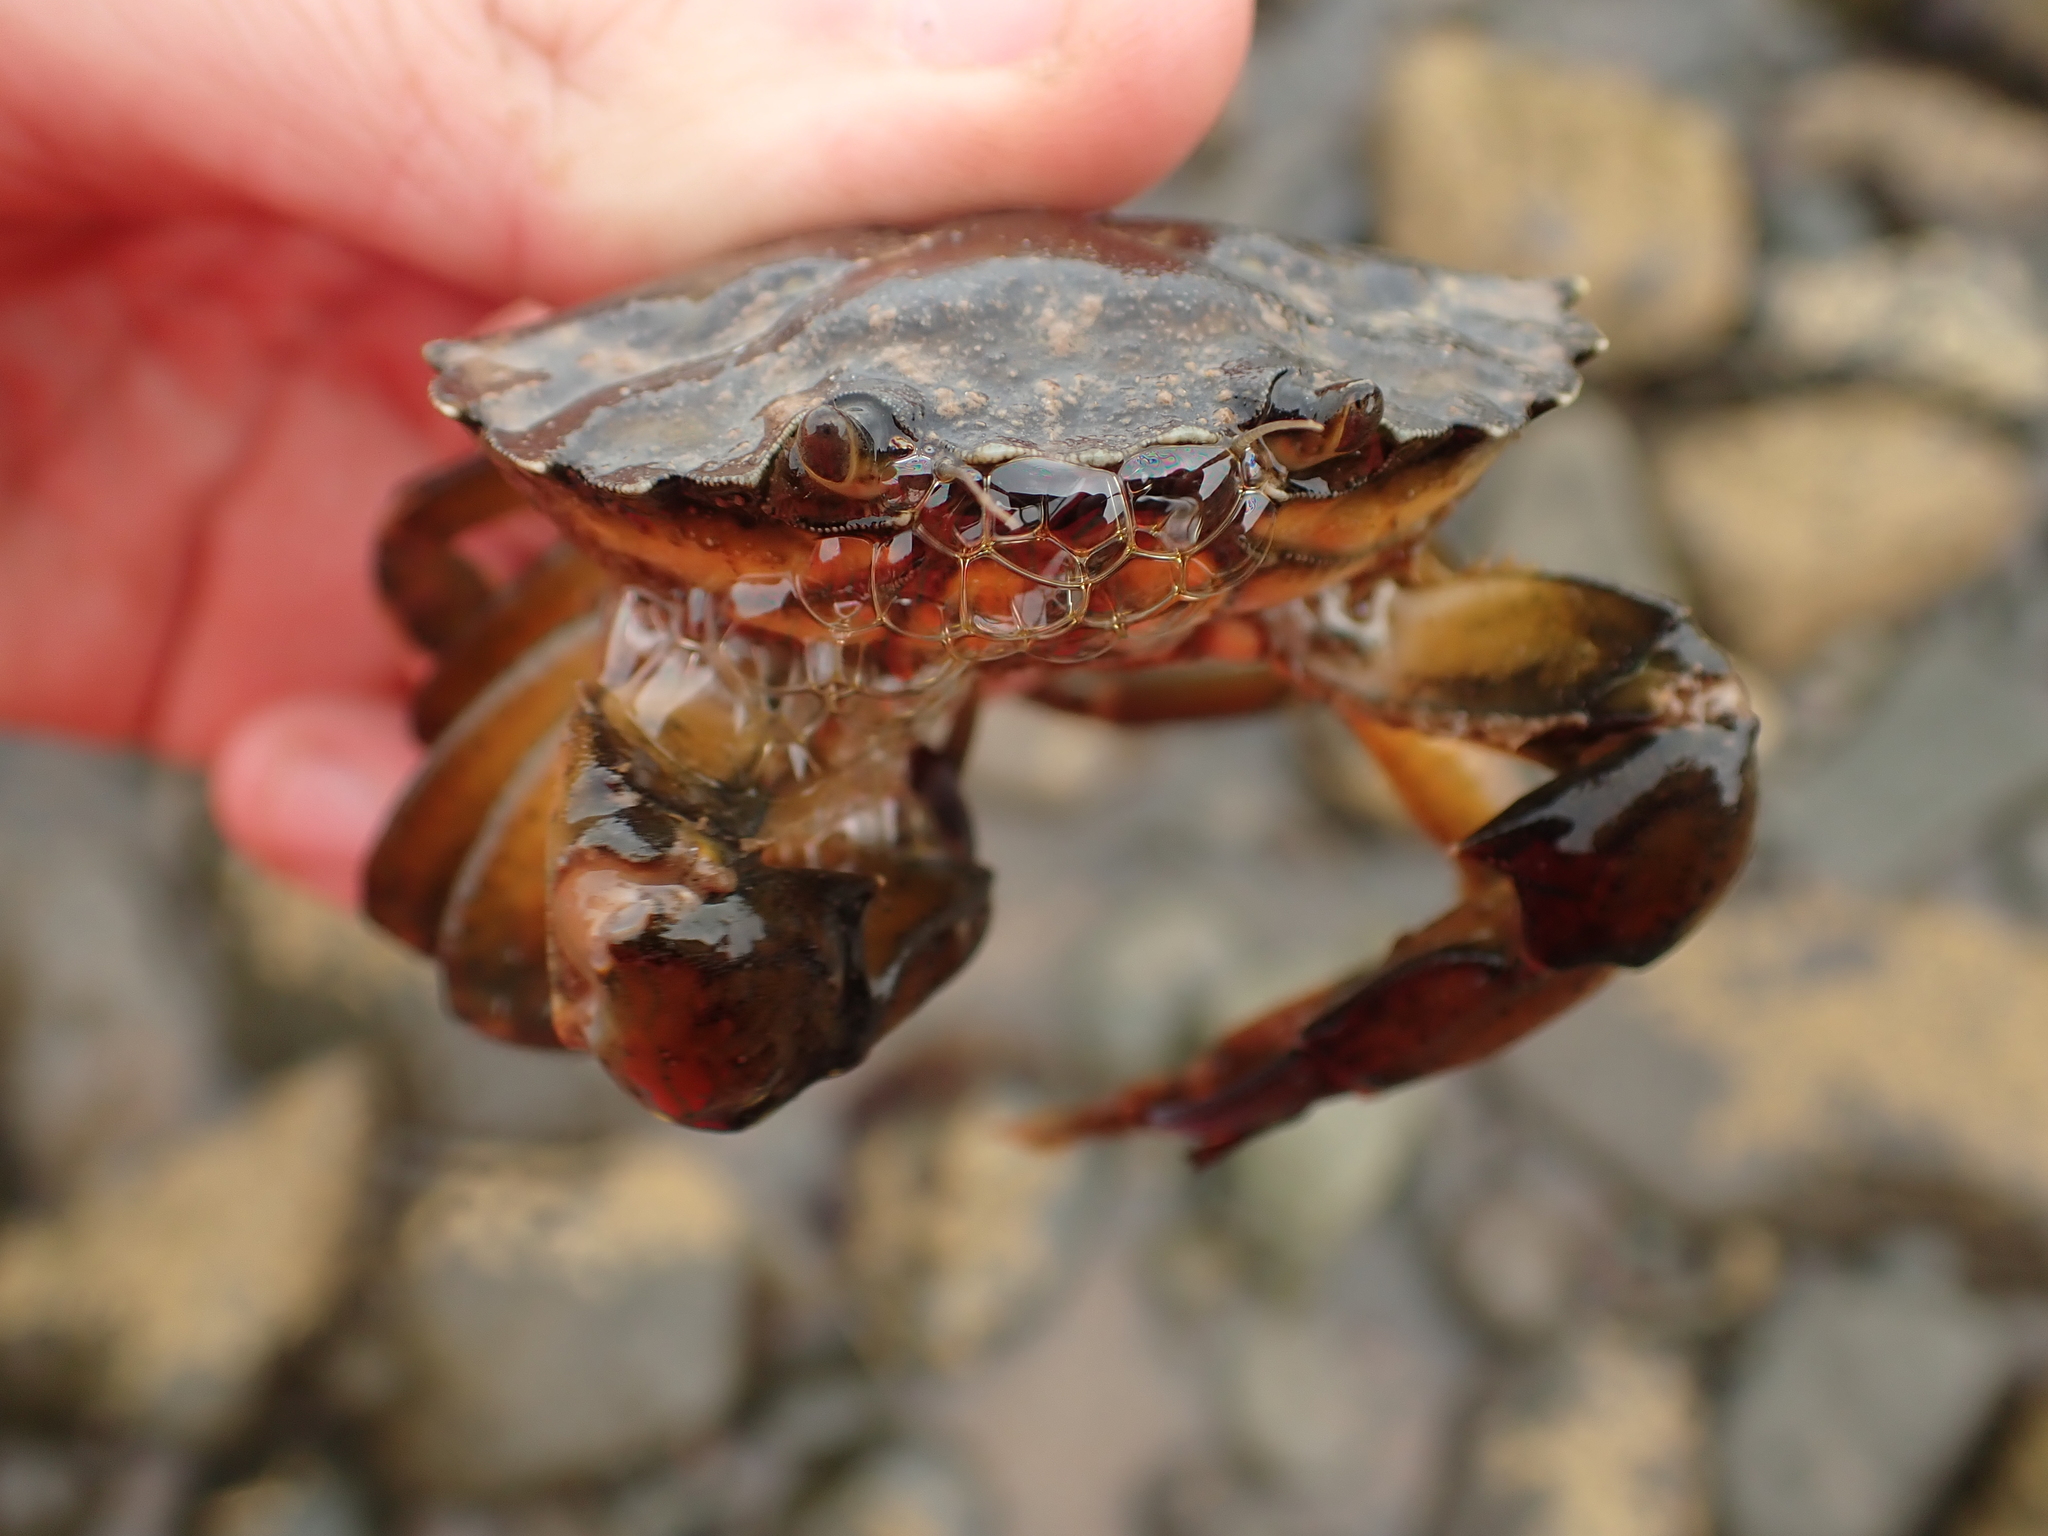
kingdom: Animalia
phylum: Arthropoda
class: Malacostraca
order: Decapoda
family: Carcinidae
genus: Carcinus
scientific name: Carcinus maenas
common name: European green crab
